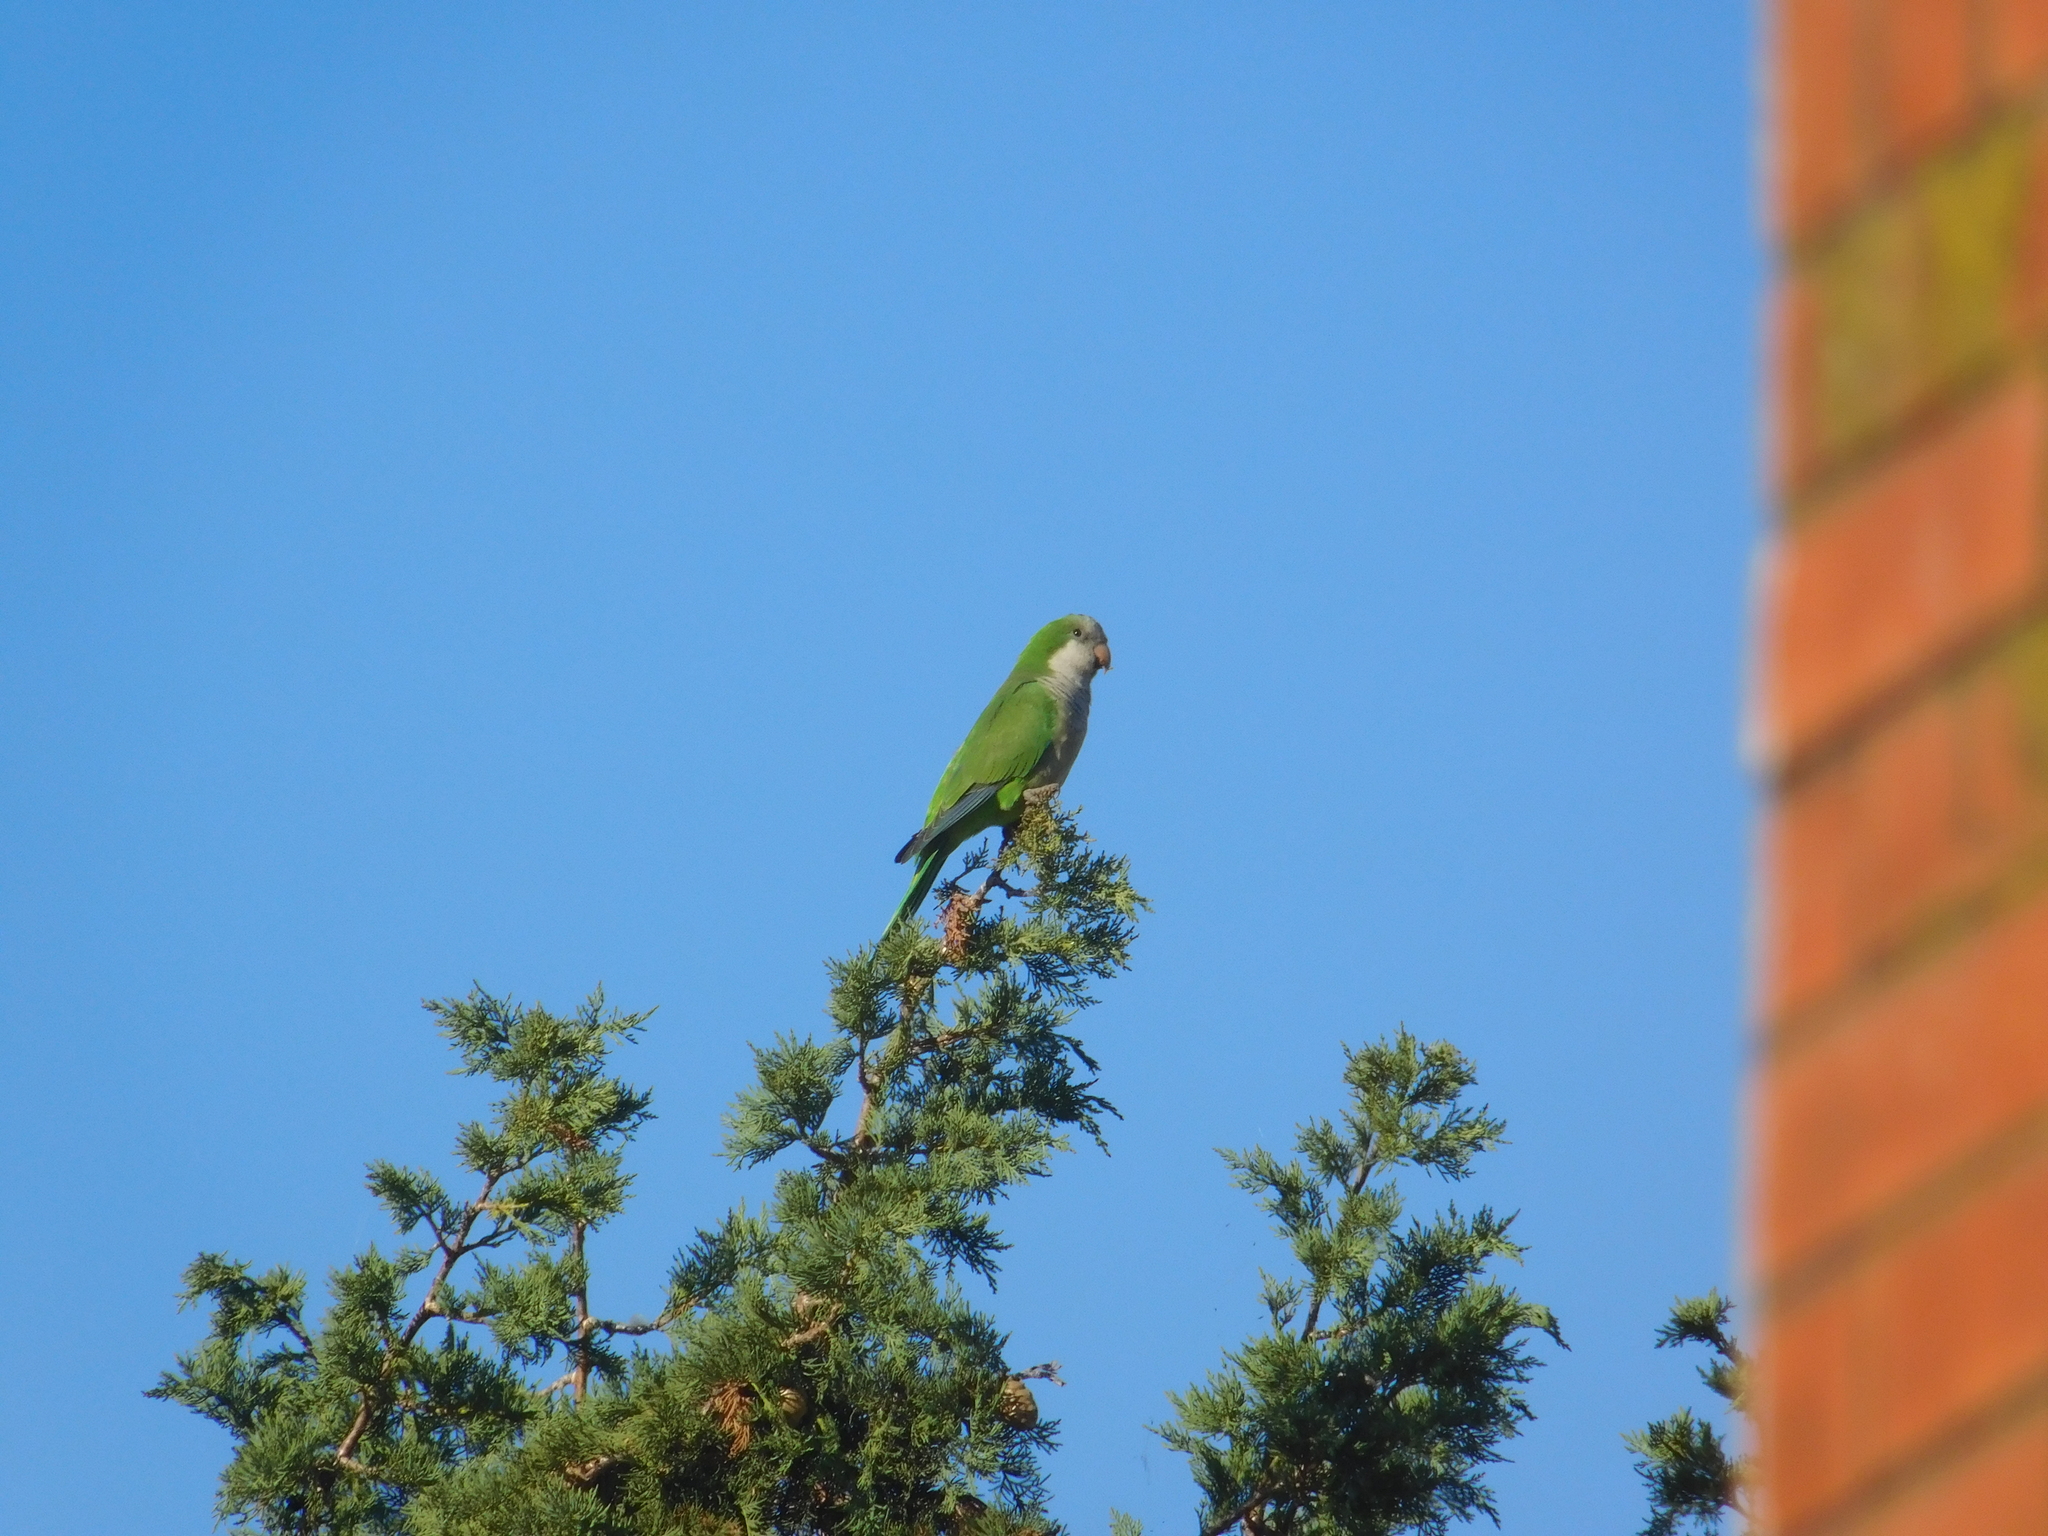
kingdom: Animalia
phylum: Chordata
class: Aves
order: Psittaciformes
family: Psittacidae
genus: Myiopsitta
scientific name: Myiopsitta monachus
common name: Monk parakeet
